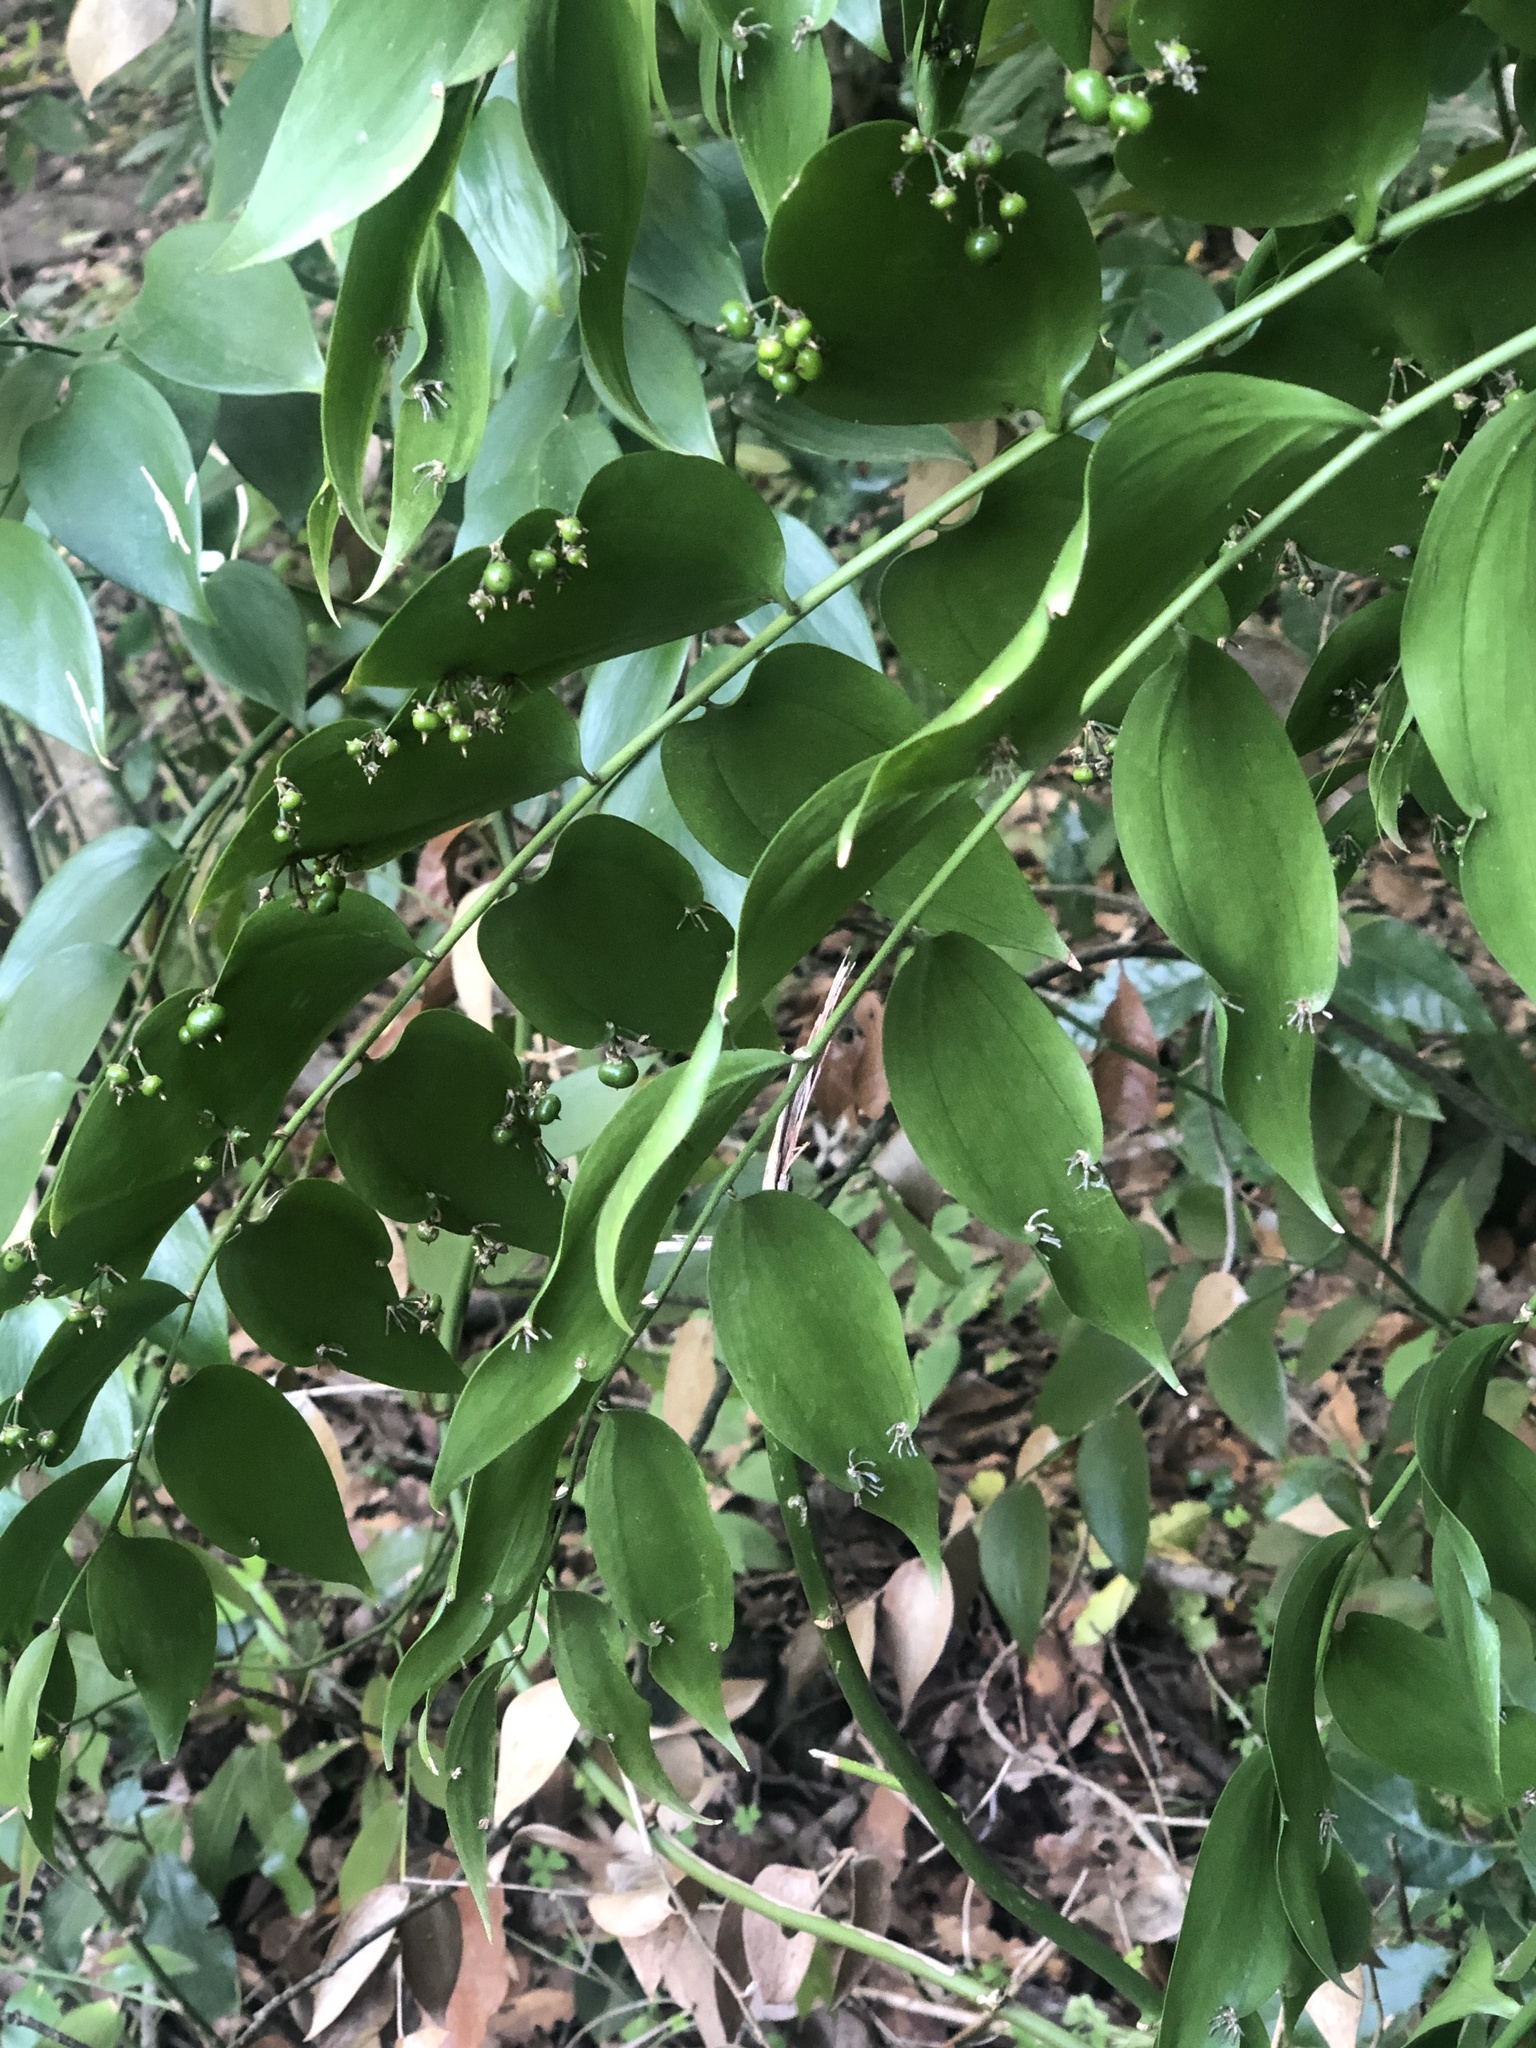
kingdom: Plantae
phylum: Tracheophyta
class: Liliopsida
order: Asparagales
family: Asparagaceae
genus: Semele
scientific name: Semele androgyna
